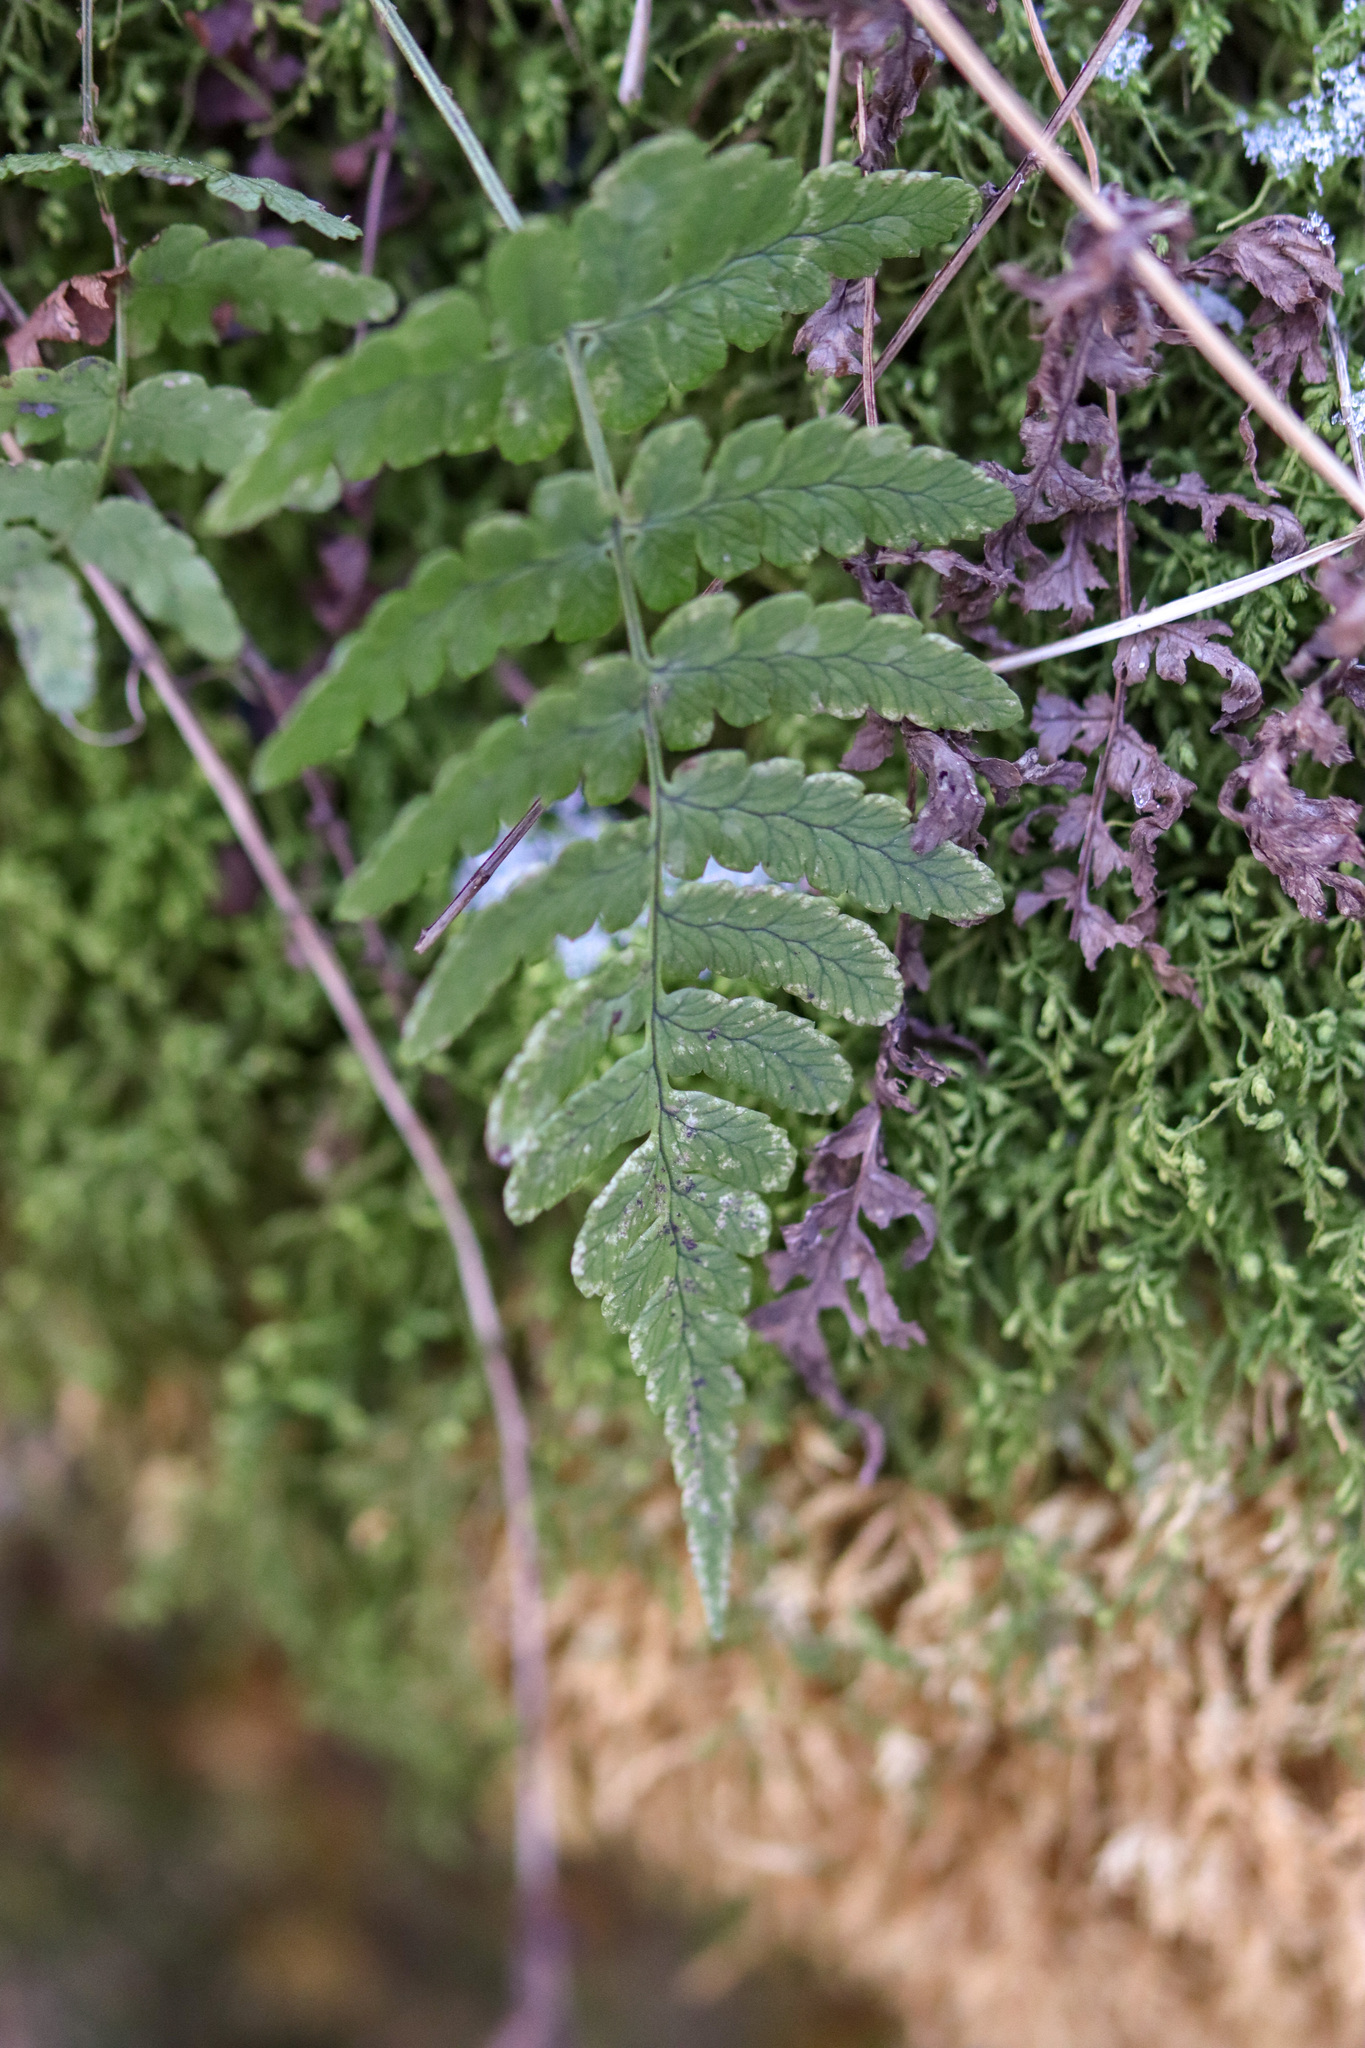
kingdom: Plantae
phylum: Tracheophyta
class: Polypodiopsida
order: Polypodiales
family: Dryopteridaceae
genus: Dryopteris
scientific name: Dryopteris marginalis
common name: Marginal wood fern
